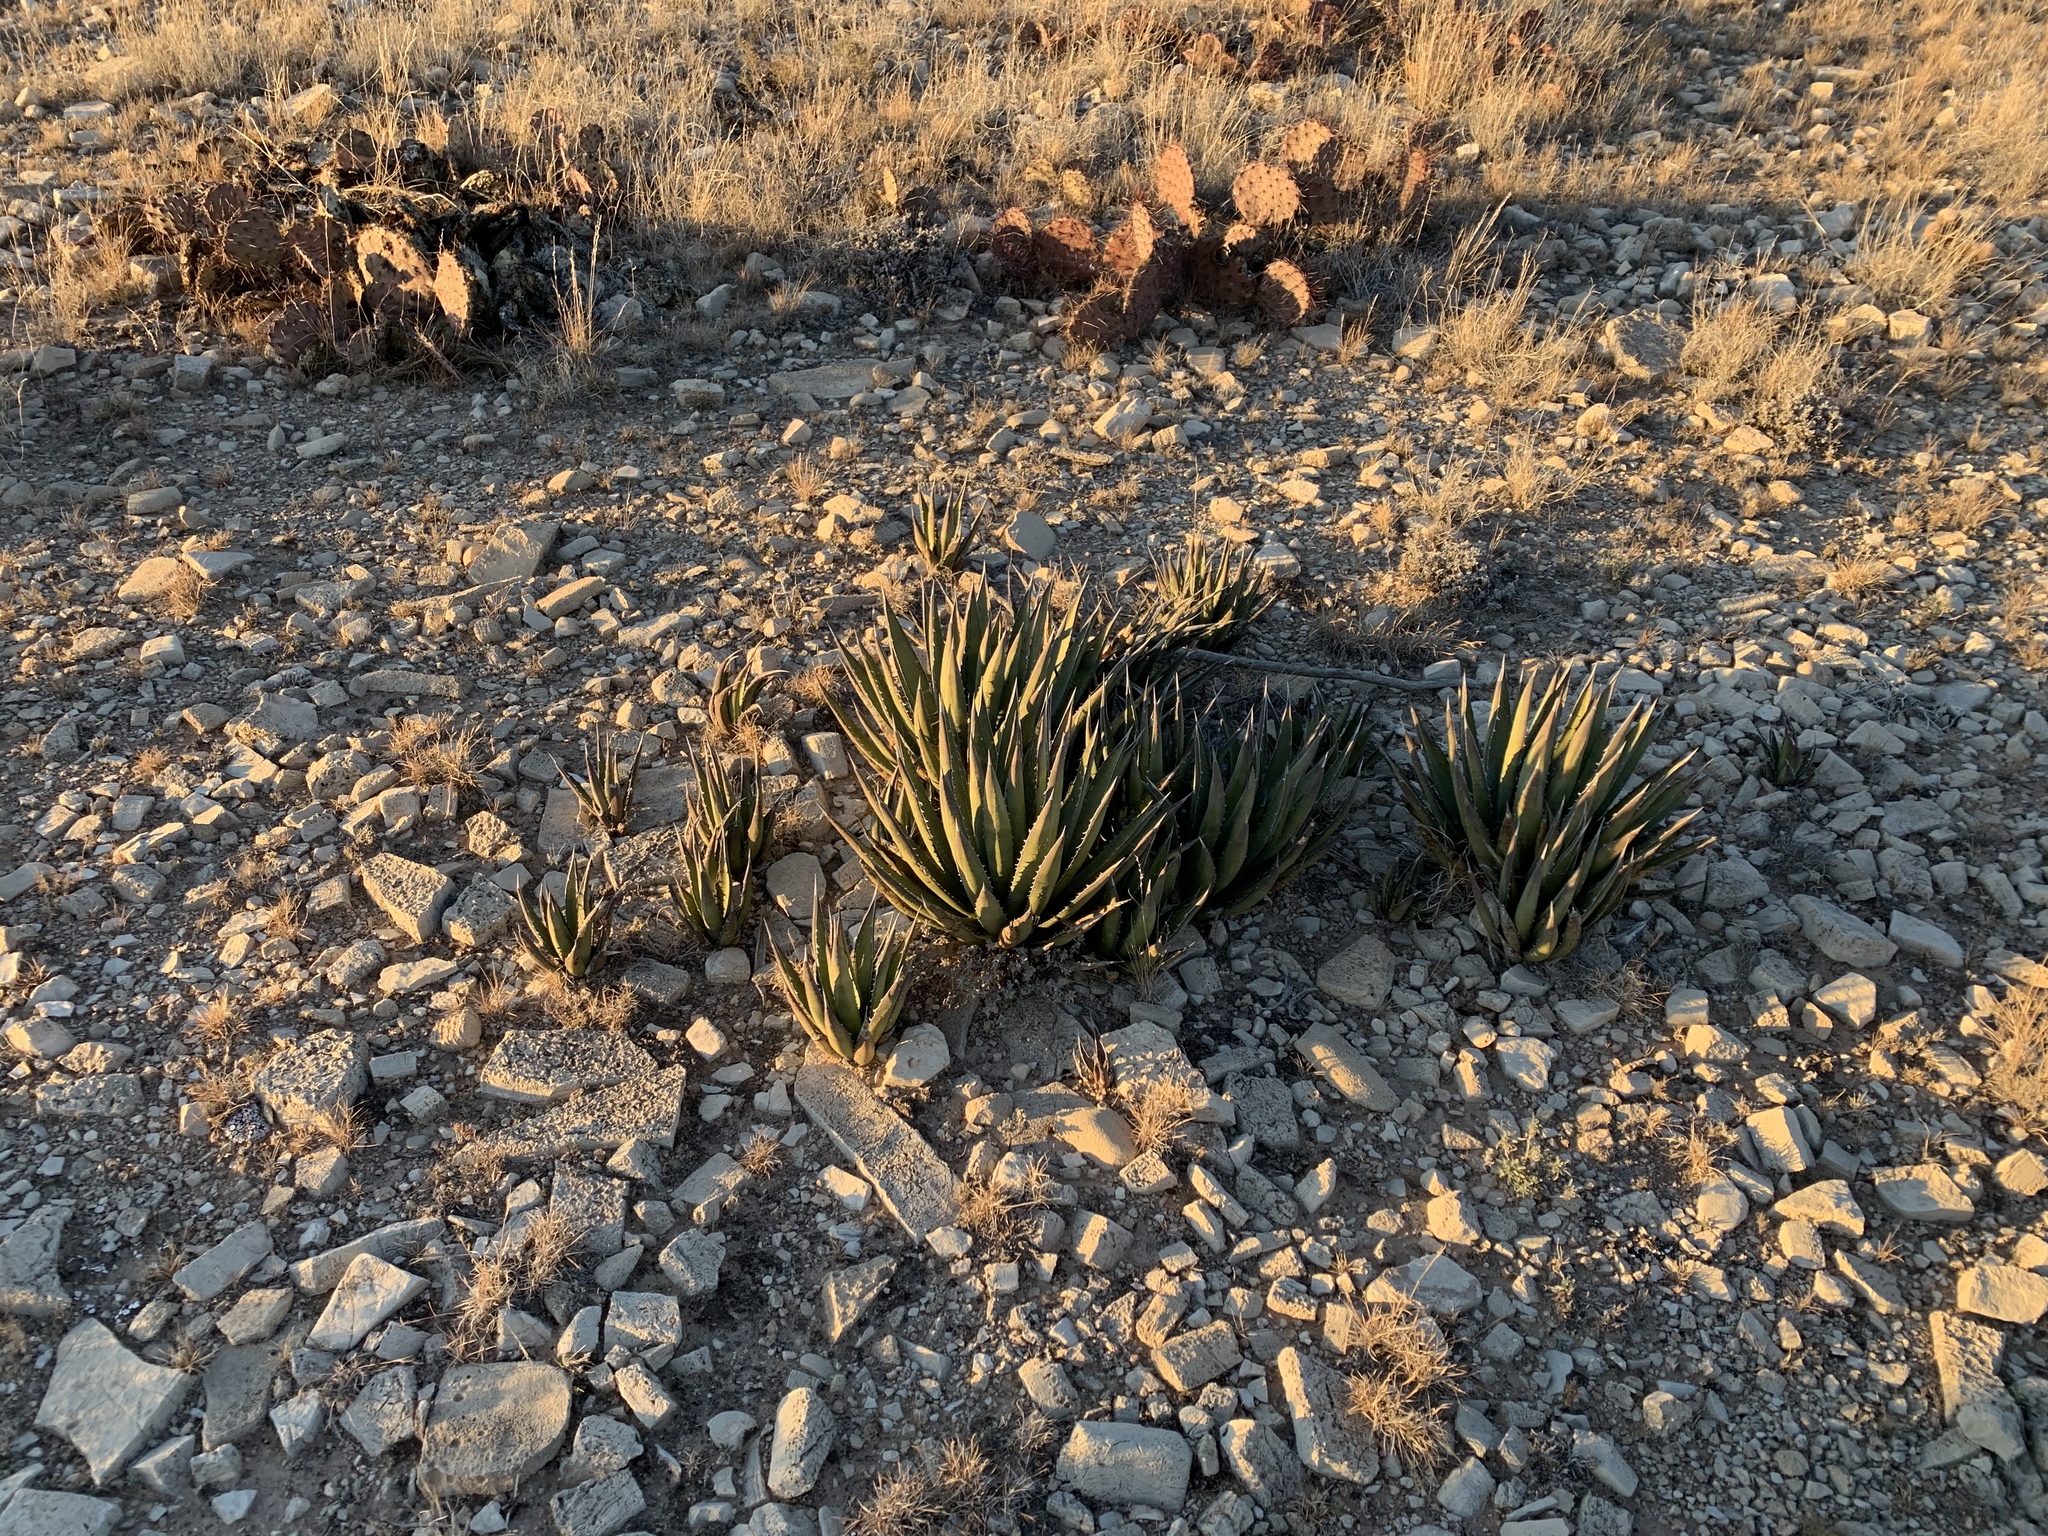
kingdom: Plantae
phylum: Tracheophyta
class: Liliopsida
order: Asparagales
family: Asparagaceae
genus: Agave
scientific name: Agave lechuguilla
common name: Lecheguilla agave
